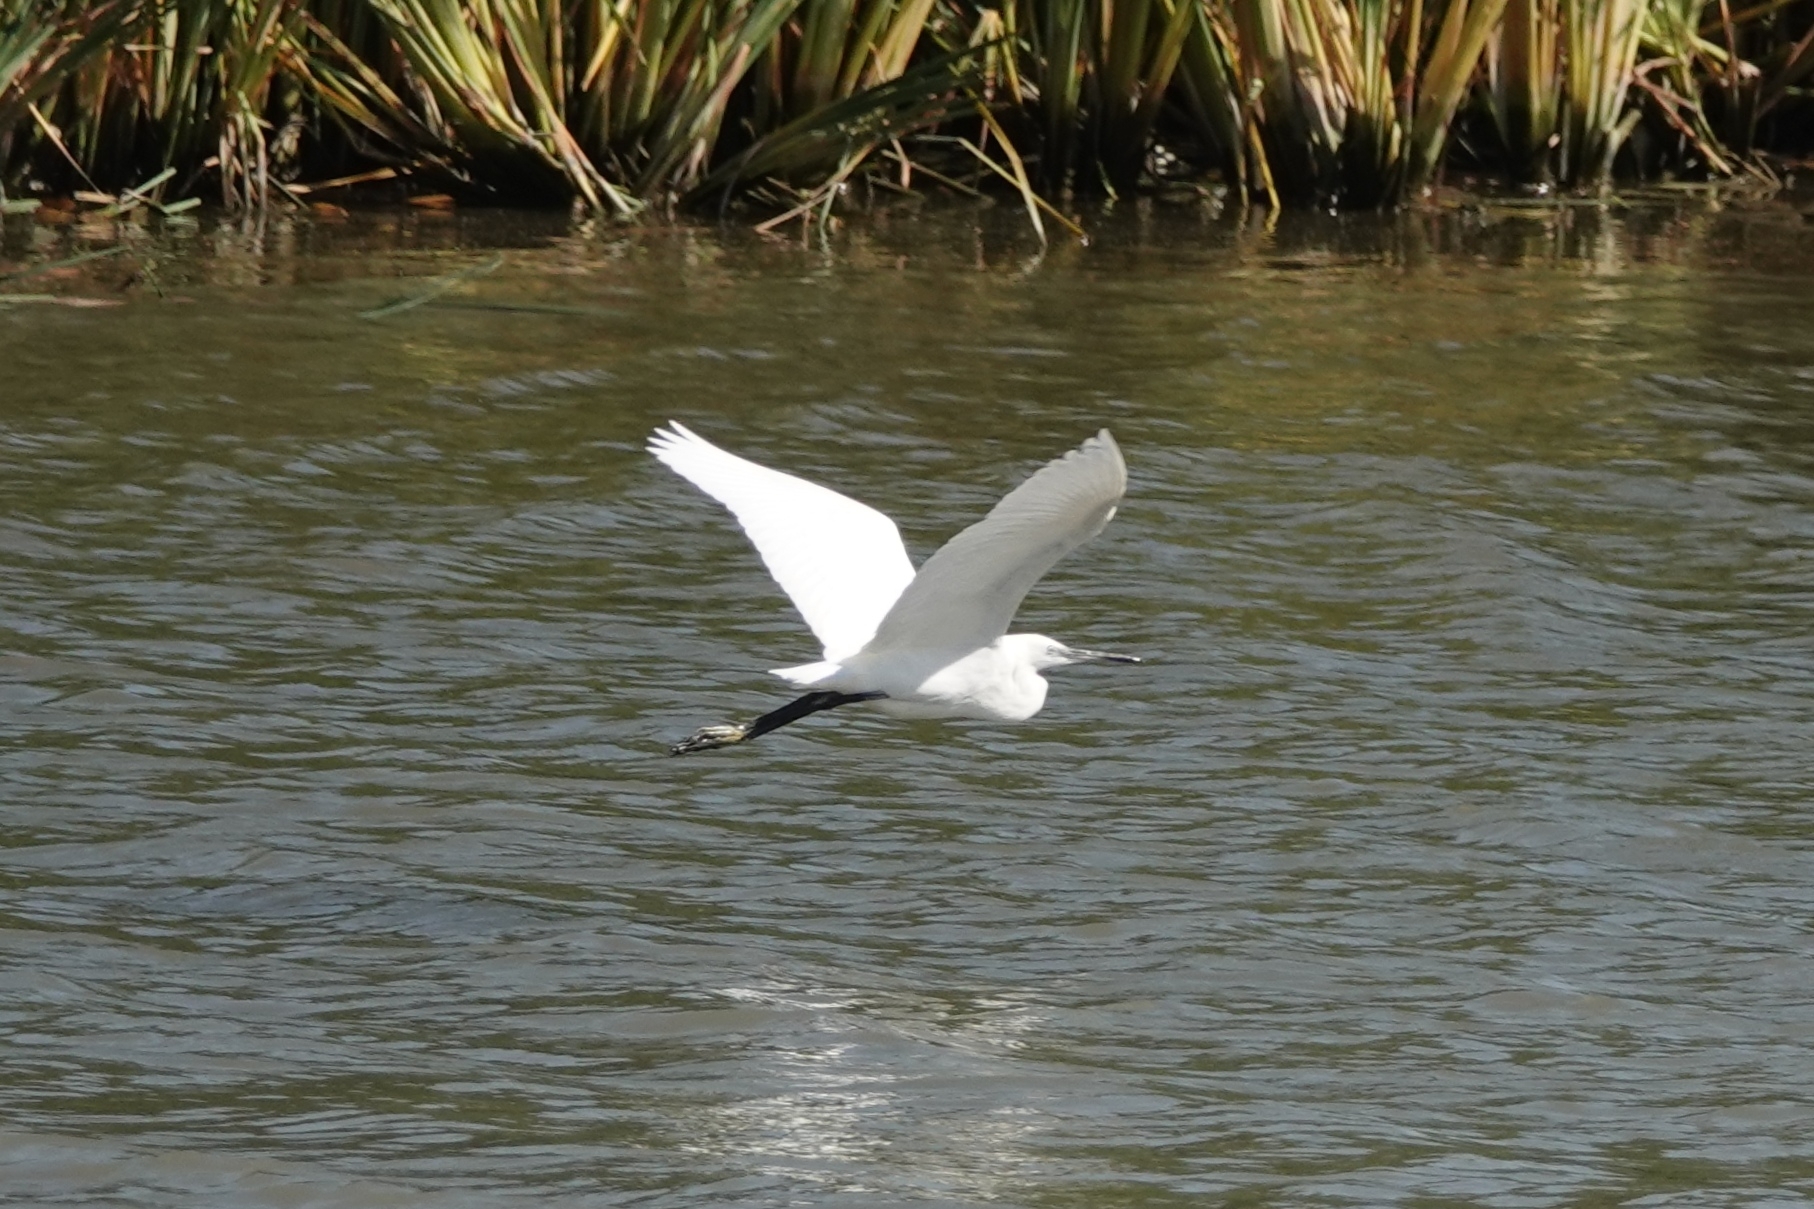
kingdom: Animalia
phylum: Chordata
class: Aves
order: Pelecaniformes
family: Ardeidae
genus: Egretta
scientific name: Egretta garzetta
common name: Little egret
